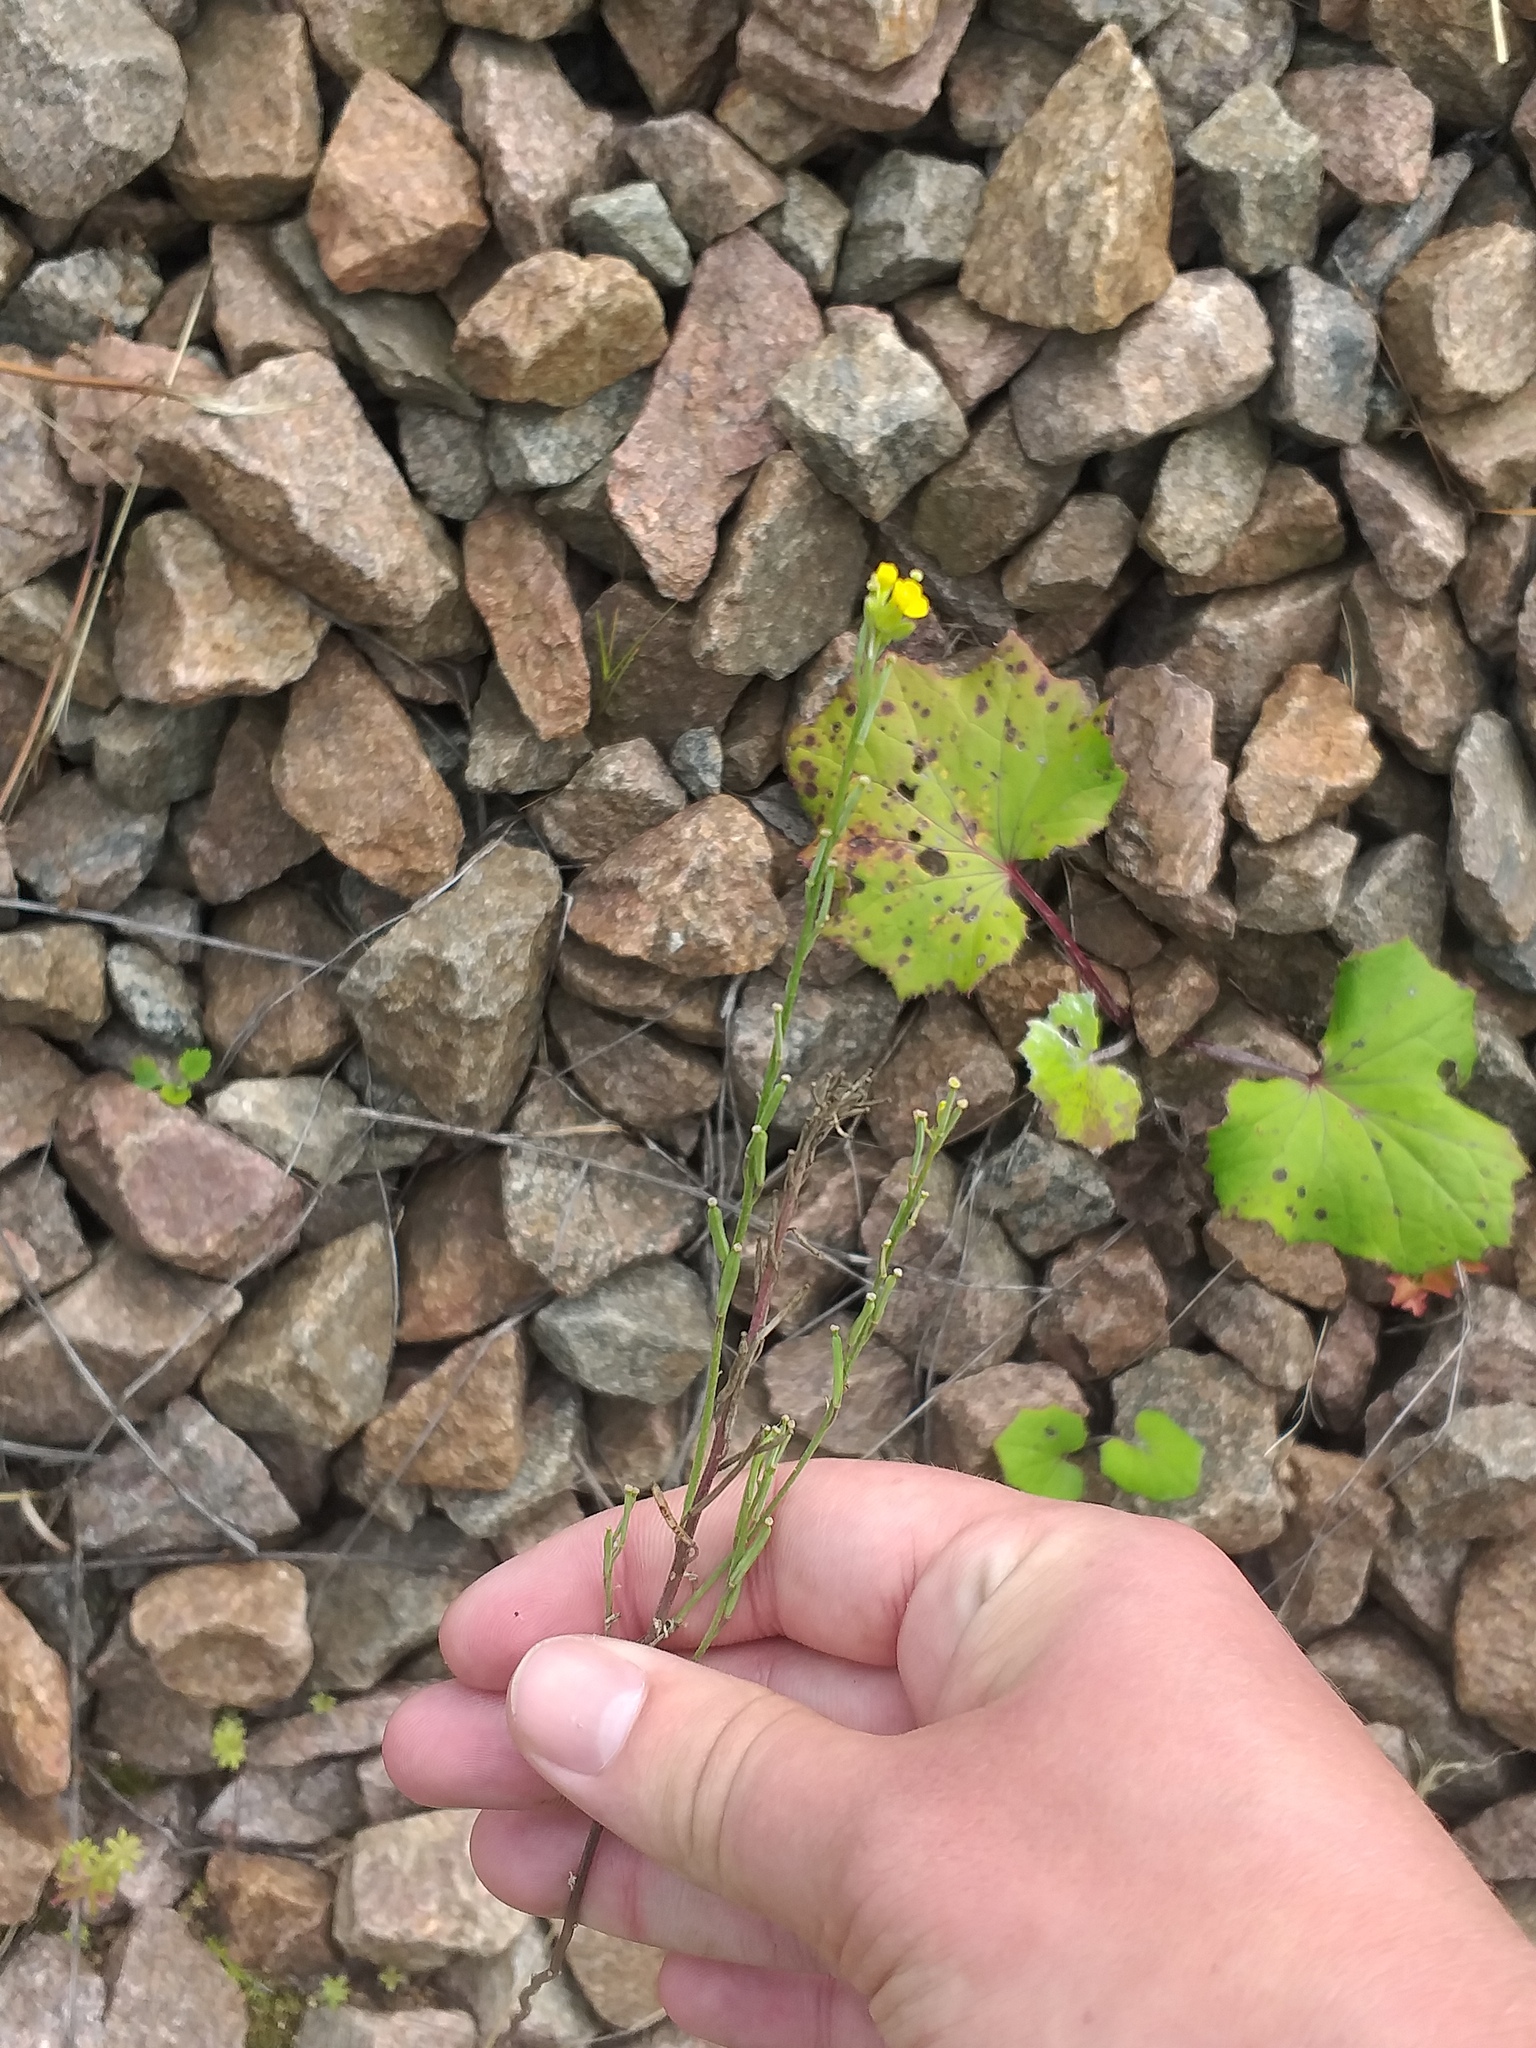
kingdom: Plantae
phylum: Tracheophyta
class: Magnoliopsida
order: Brassicales
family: Brassicaceae
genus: Erysimum
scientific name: Erysimum hieraciifolium
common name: European wallflower
